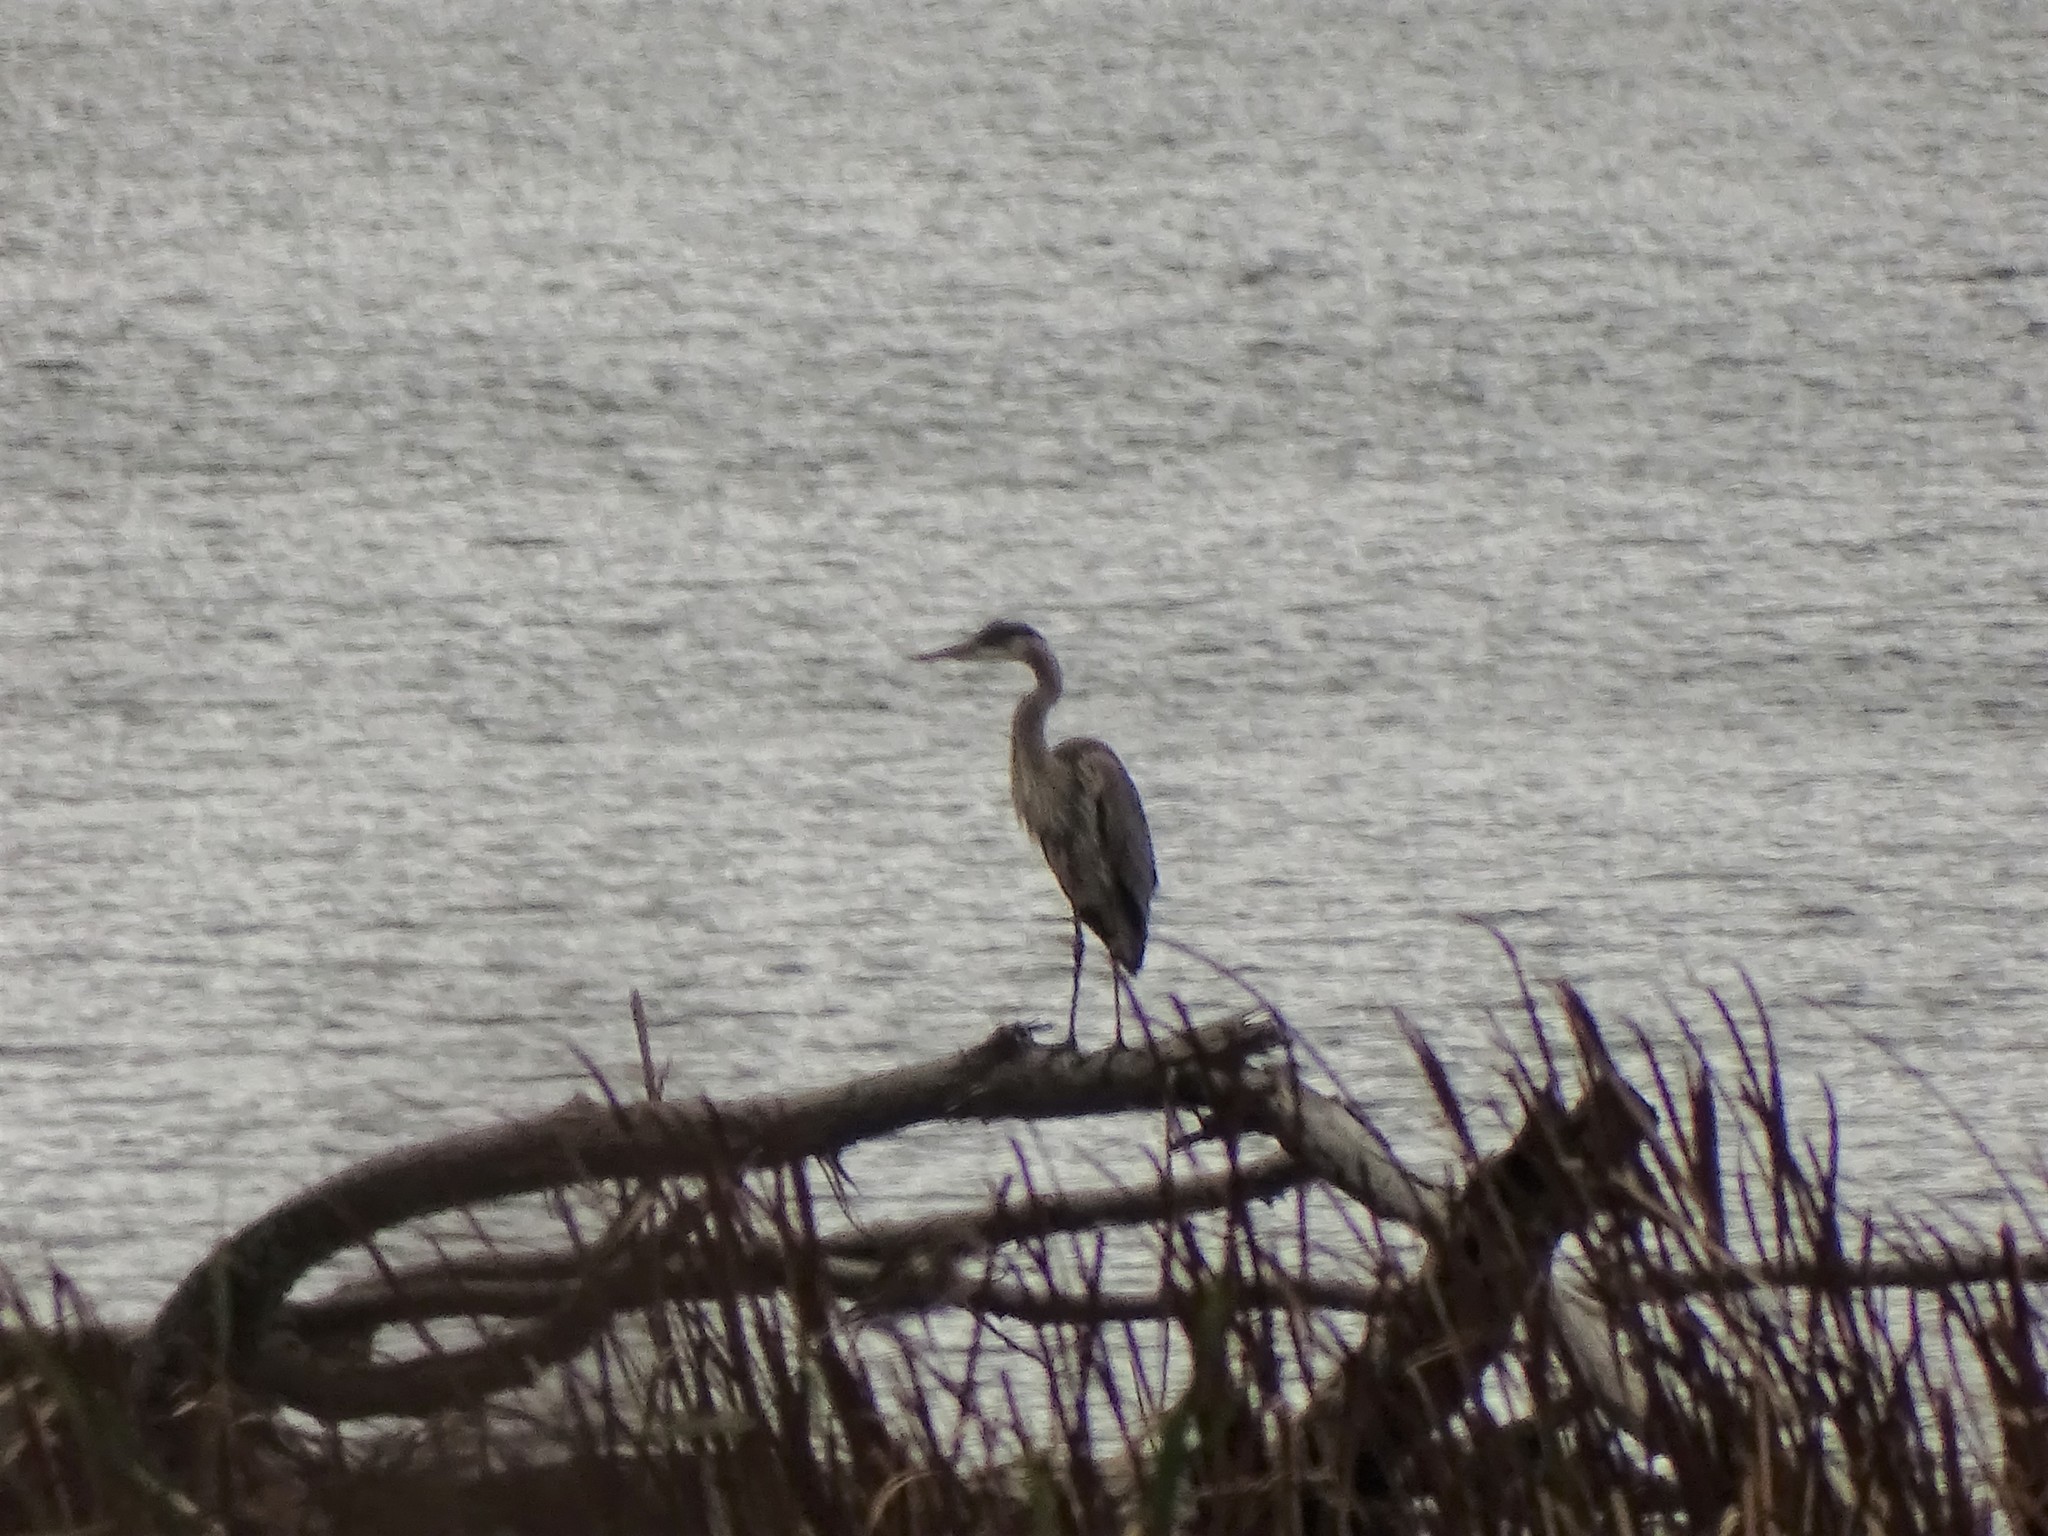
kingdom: Animalia
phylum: Chordata
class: Aves
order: Pelecaniformes
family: Ardeidae
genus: Ardea
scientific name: Ardea herodias
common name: Great blue heron
